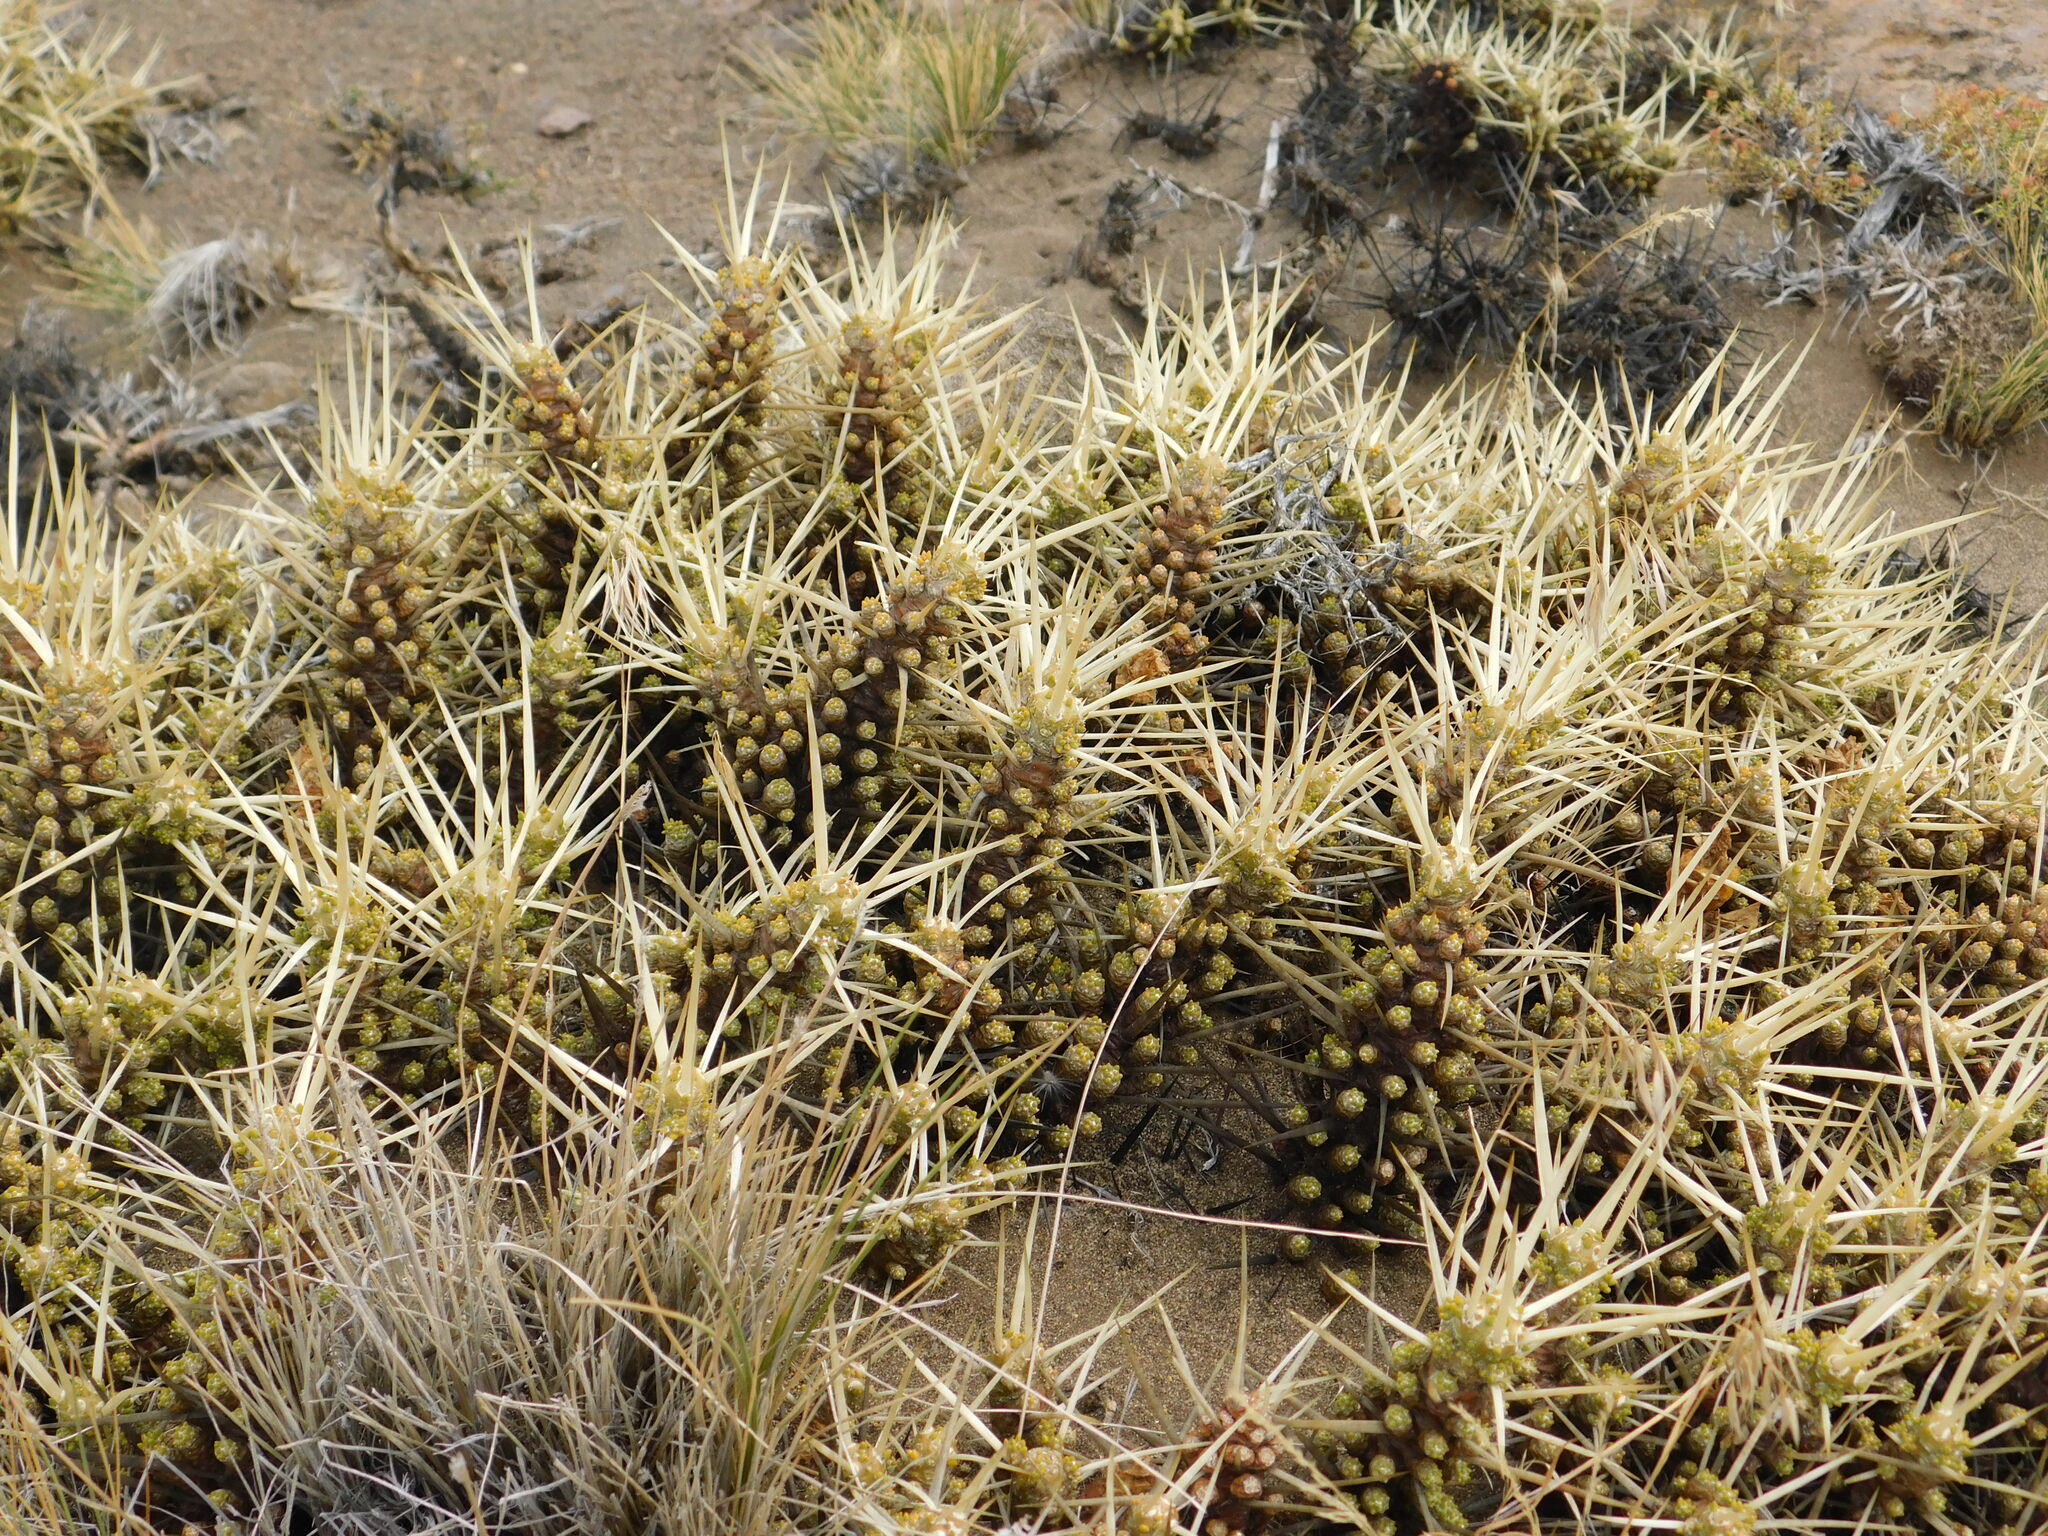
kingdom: Plantae
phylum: Tracheophyta
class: Magnoliopsida
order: Caryophyllales
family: Cactaceae
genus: Maihuenia
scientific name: Maihuenia patagonica
